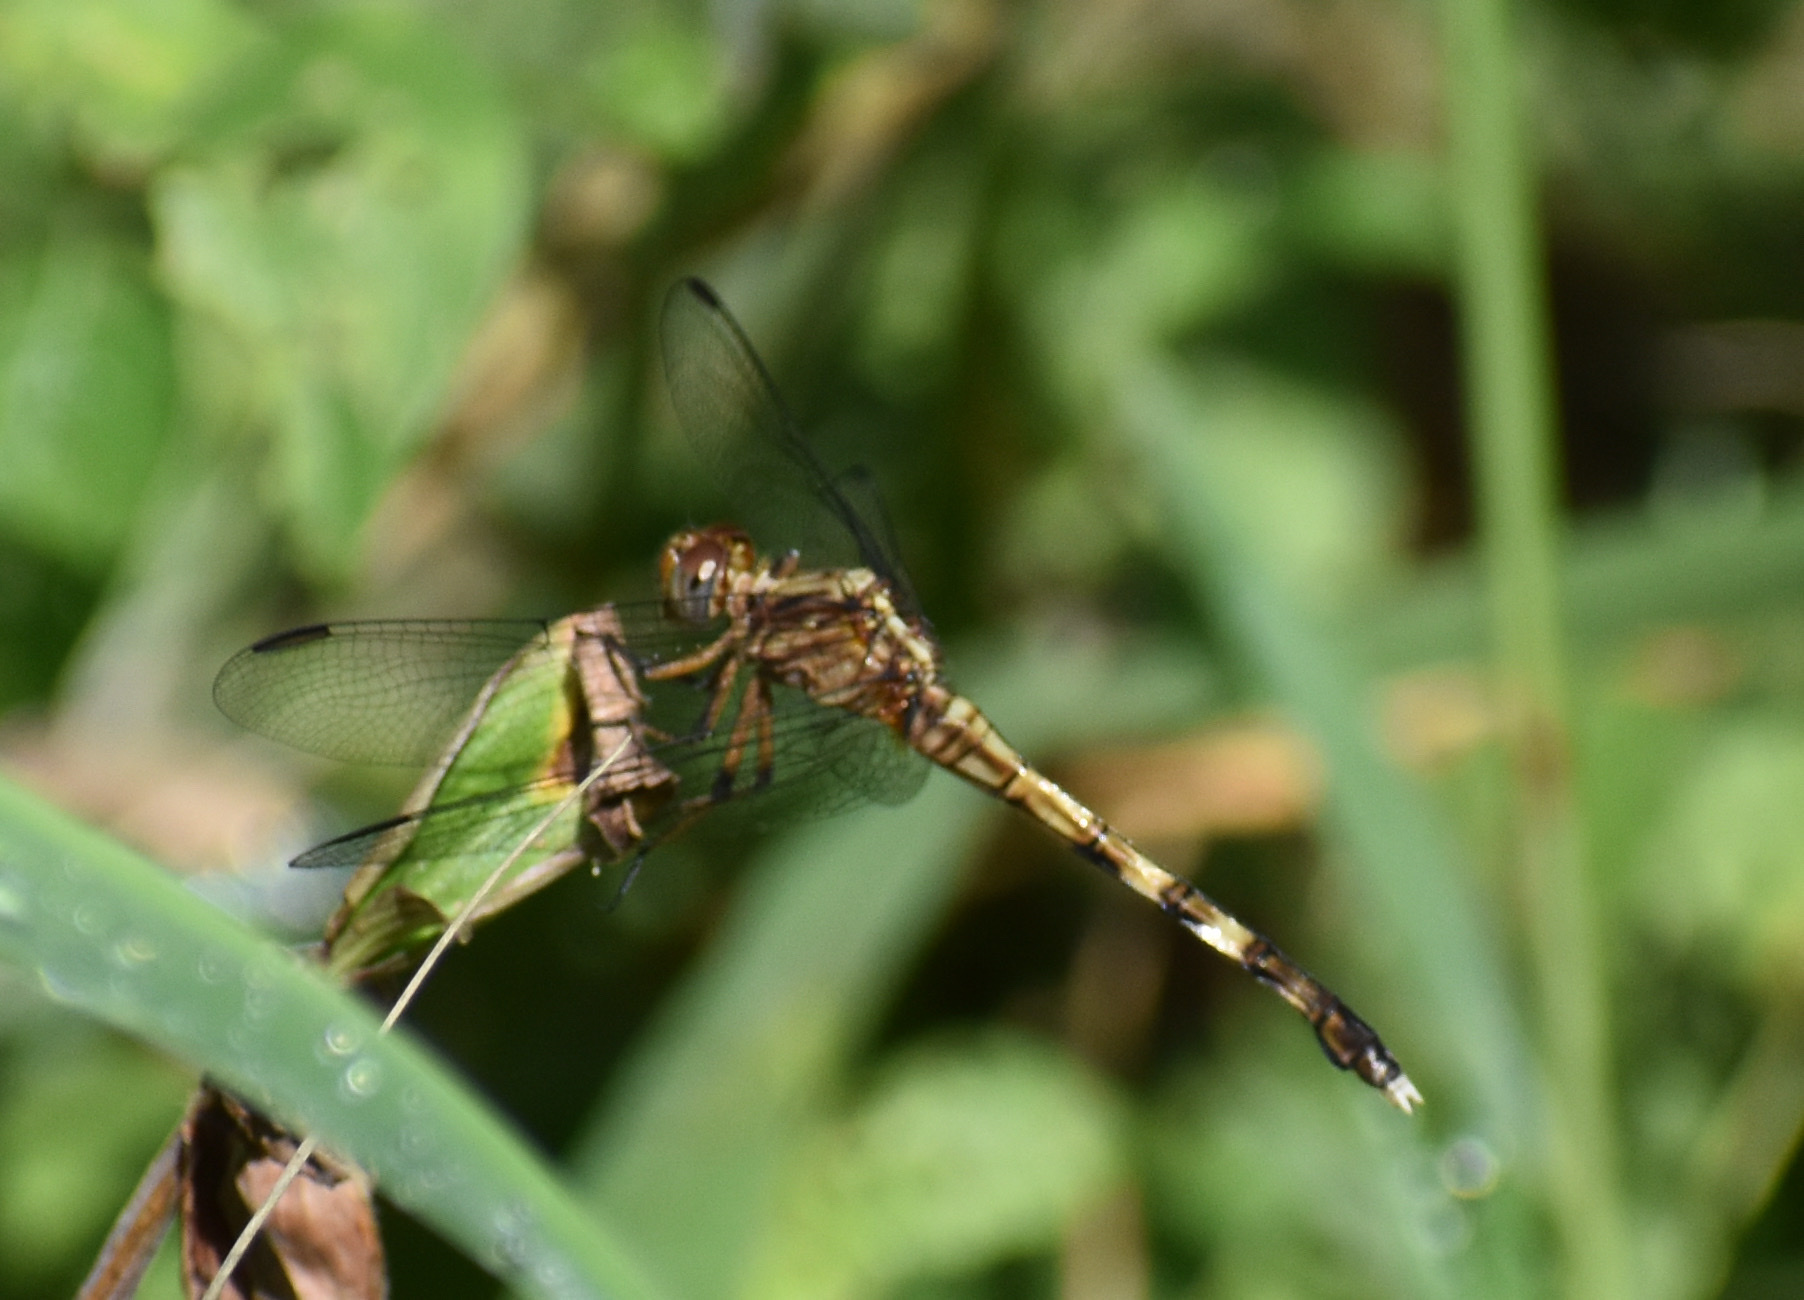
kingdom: Animalia
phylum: Arthropoda
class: Insecta
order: Odonata
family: Libellulidae
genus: Orthetrum
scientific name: Orthetrum julia
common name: Julia skimmer
